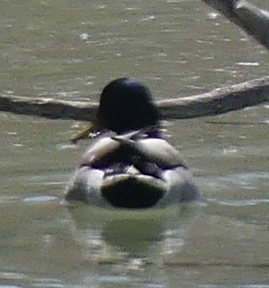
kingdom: Animalia
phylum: Chordata
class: Aves
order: Anseriformes
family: Anatidae
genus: Anas
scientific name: Anas platyrhynchos
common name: Mallard
